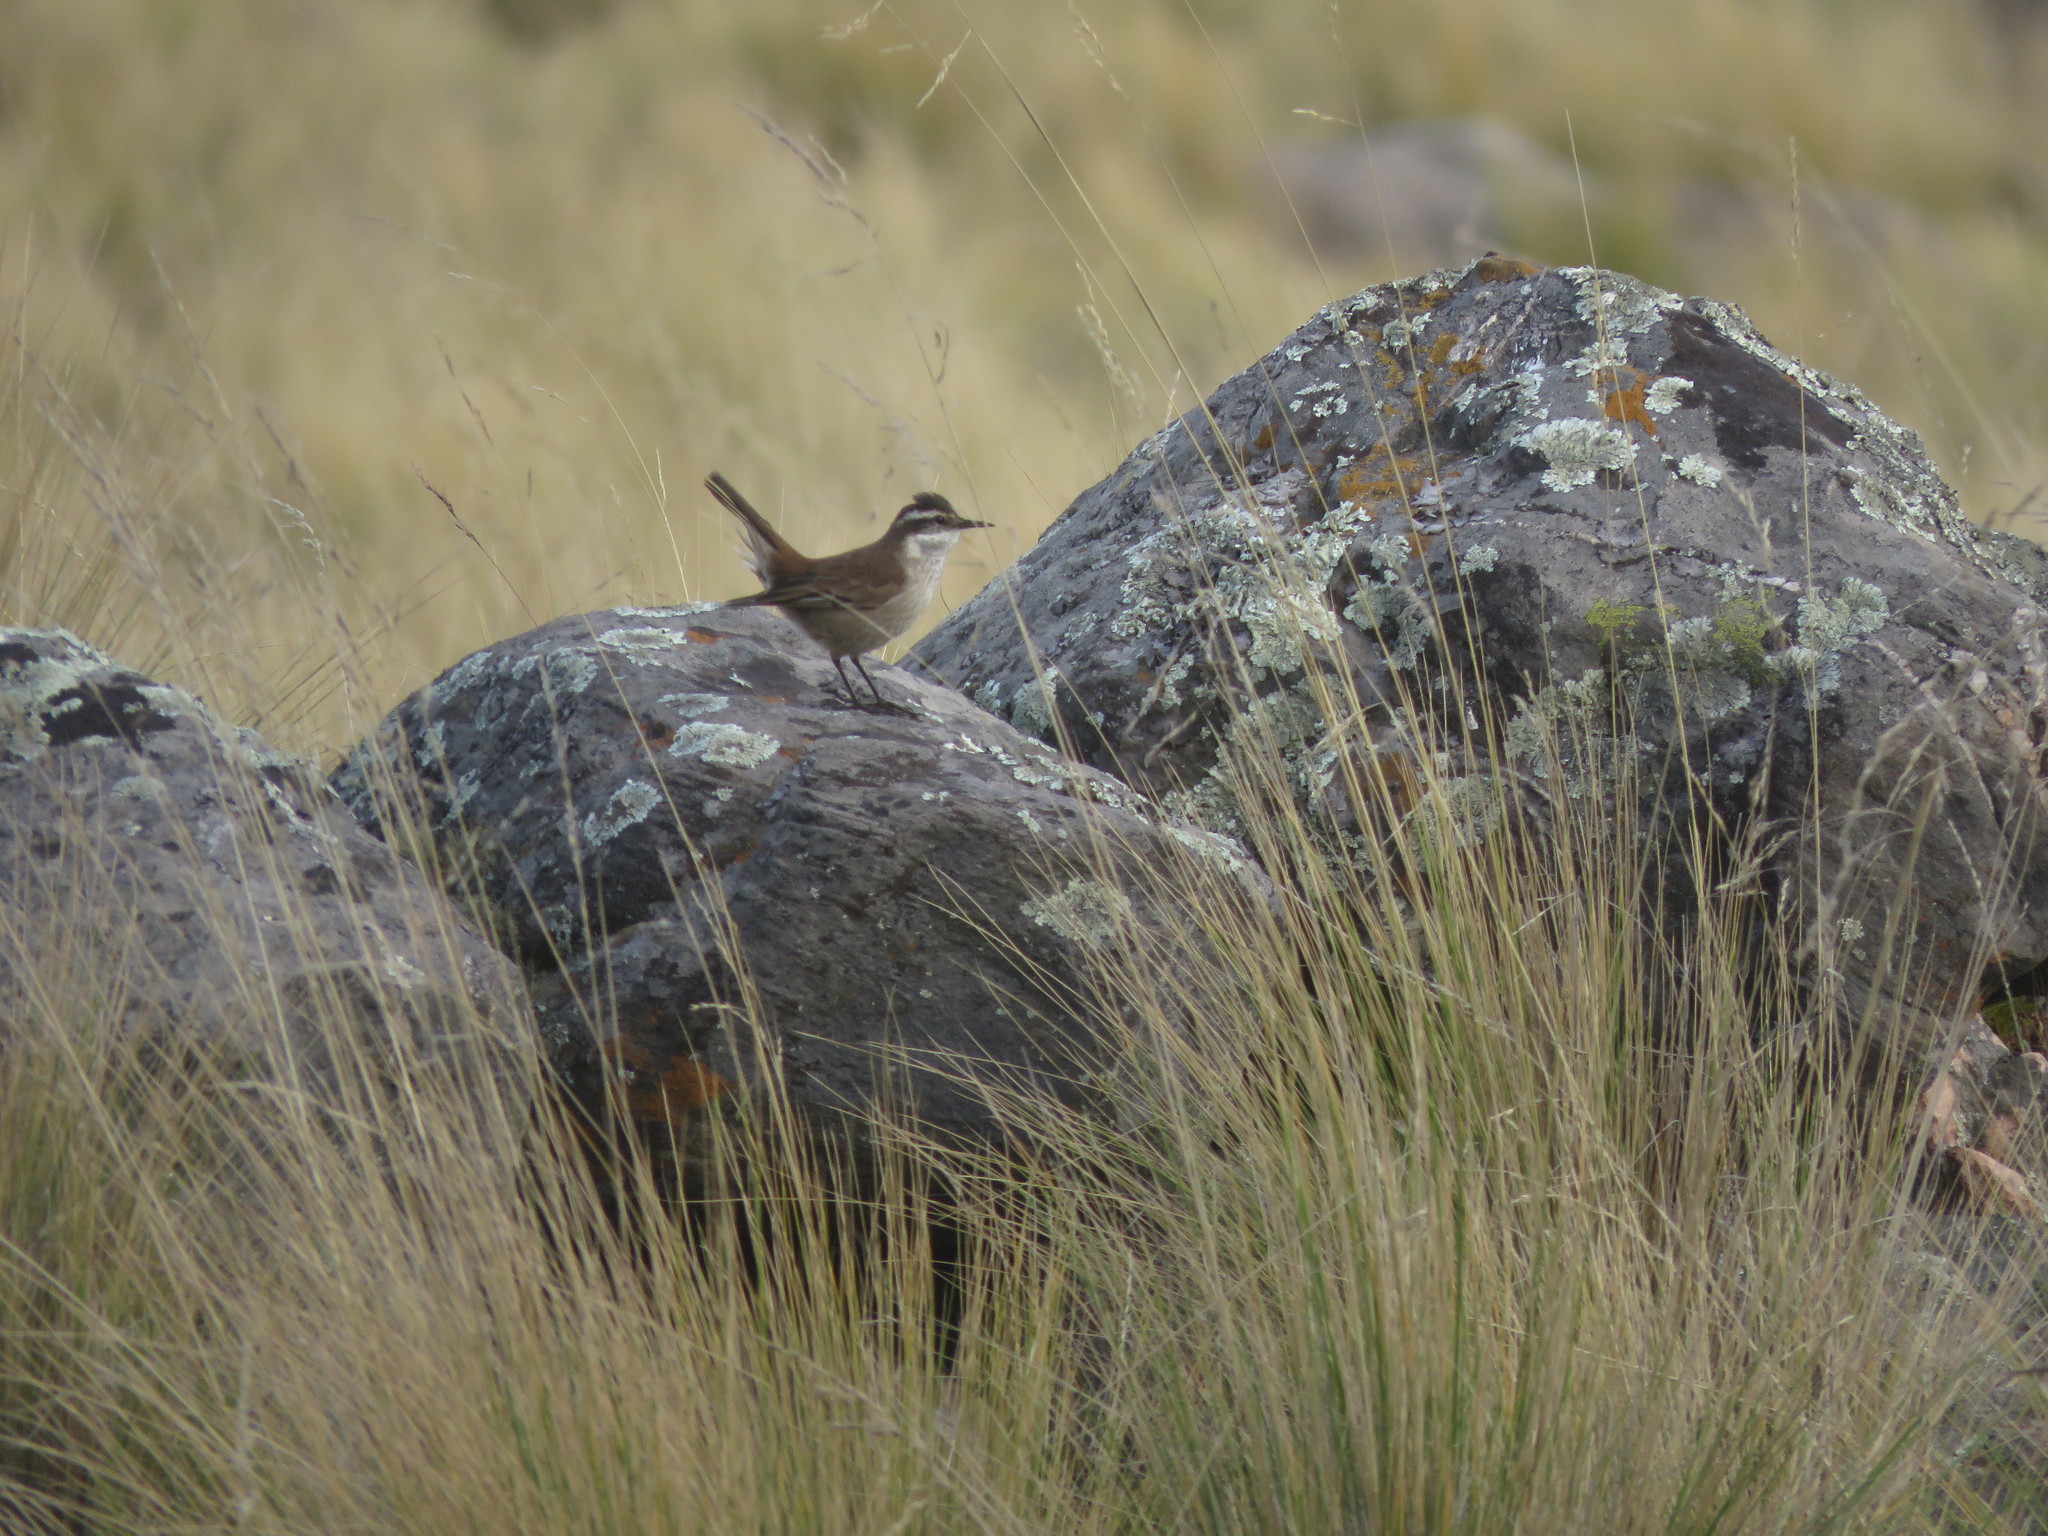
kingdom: Animalia
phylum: Chordata
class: Aves
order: Passeriformes
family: Furnariidae
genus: Cinclodes
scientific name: Cinclodes comechingonus
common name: Cordoba cinclodes
